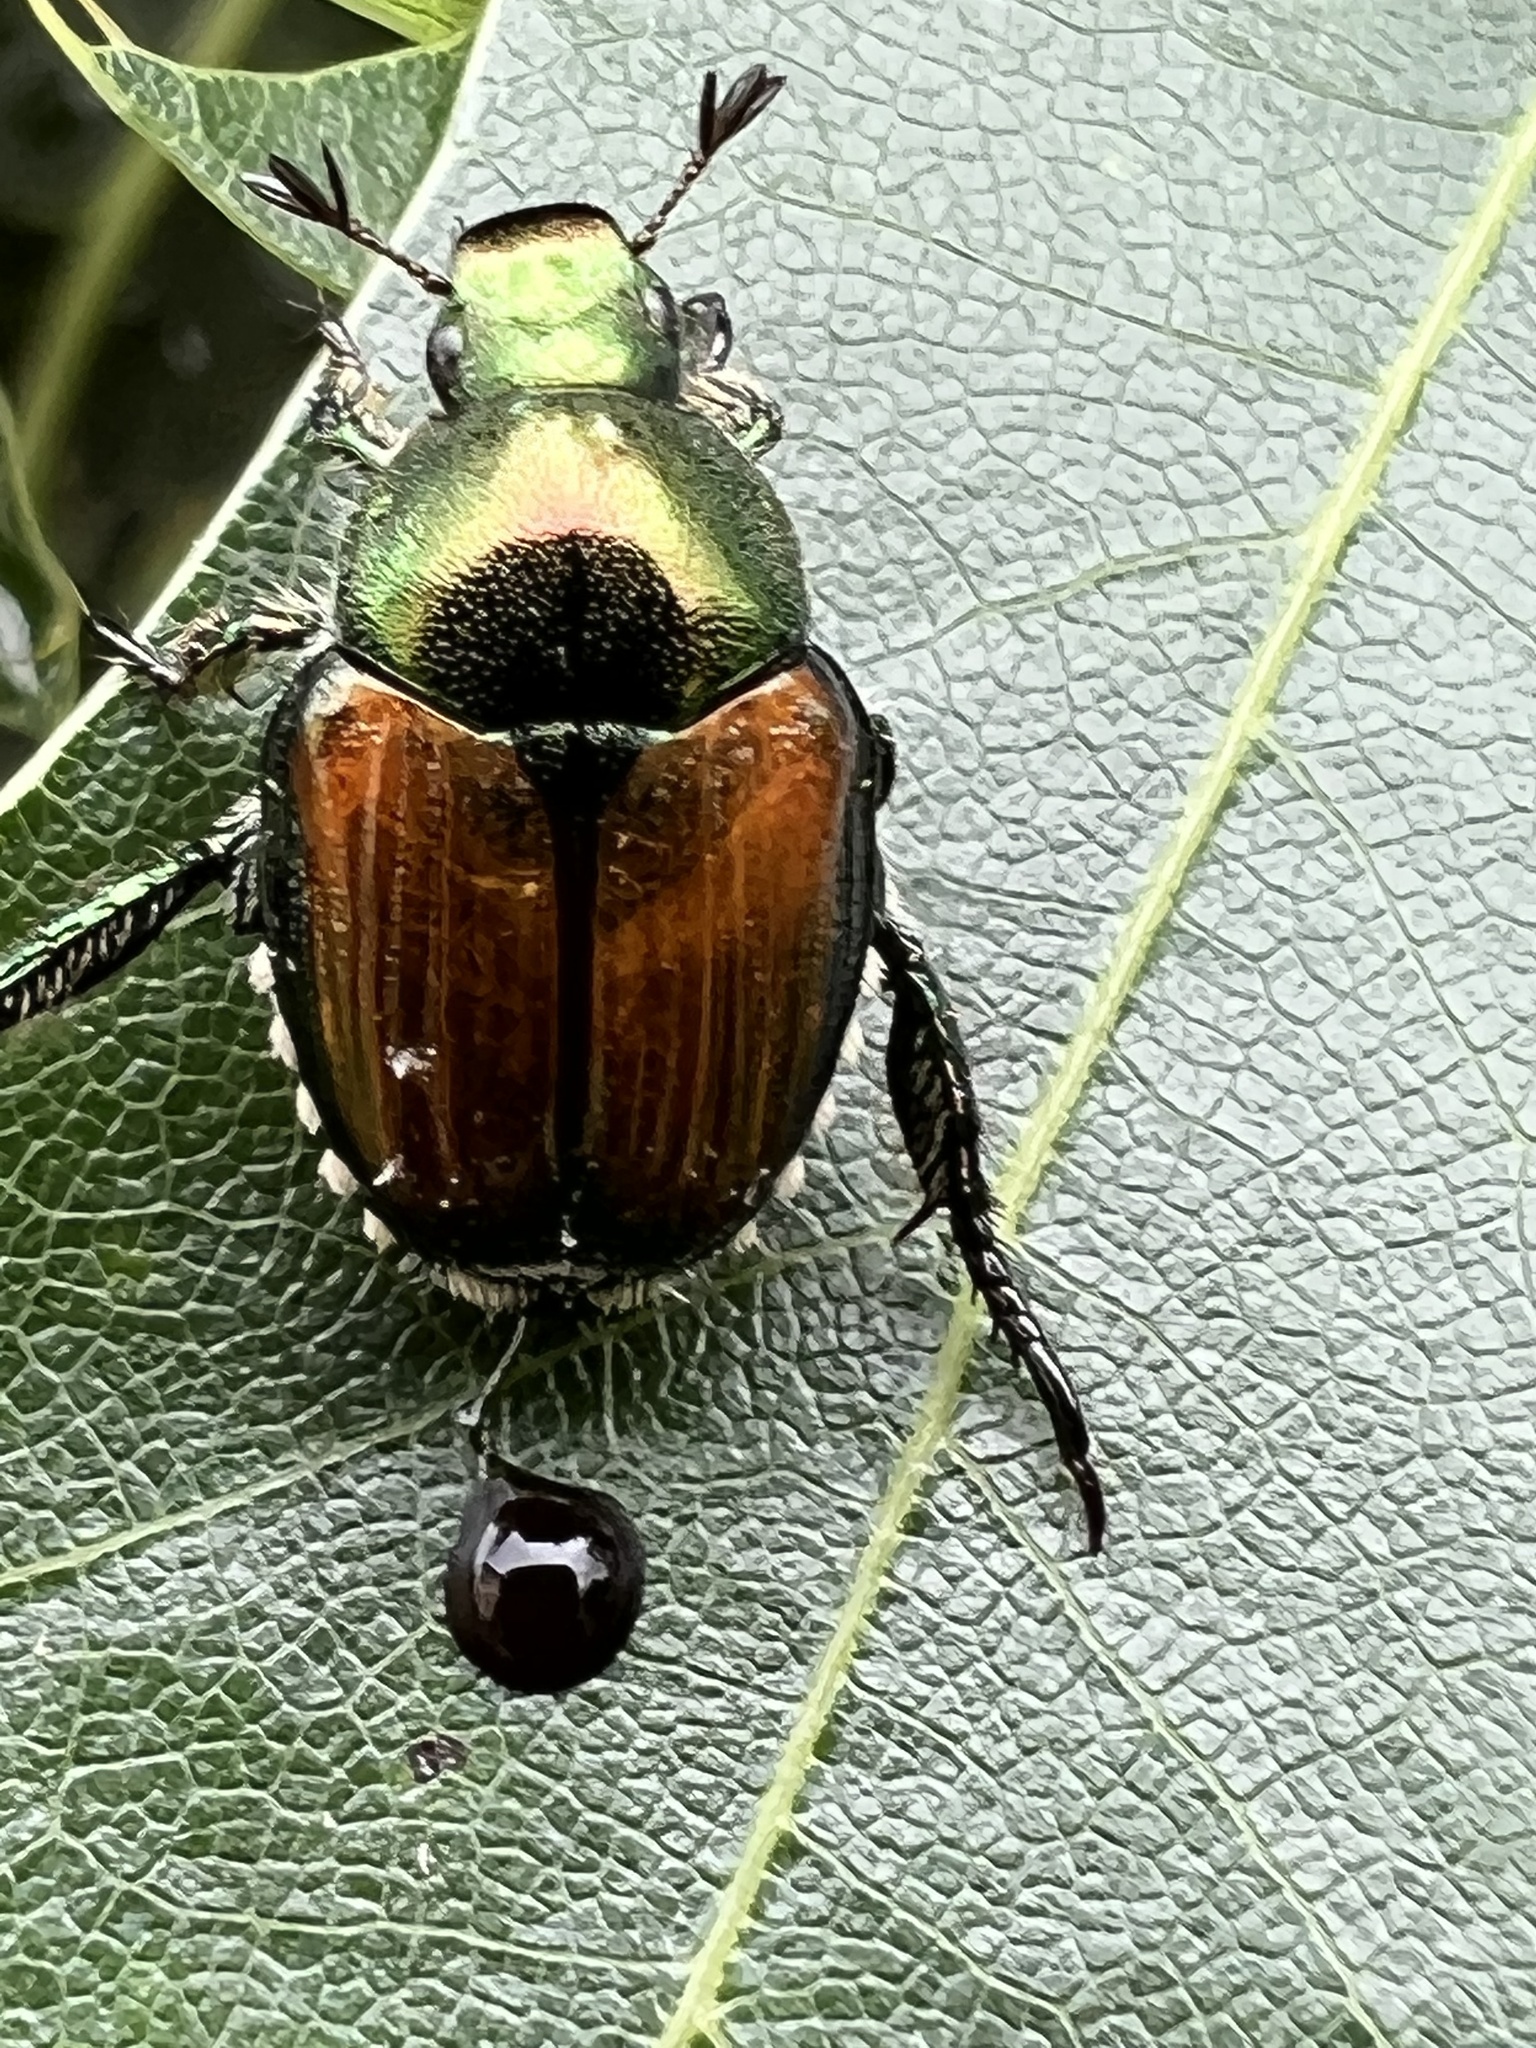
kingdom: Animalia
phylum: Arthropoda
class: Insecta
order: Coleoptera
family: Scarabaeidae
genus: Popillia
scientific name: Popillia japonica
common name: Japanese beetle
